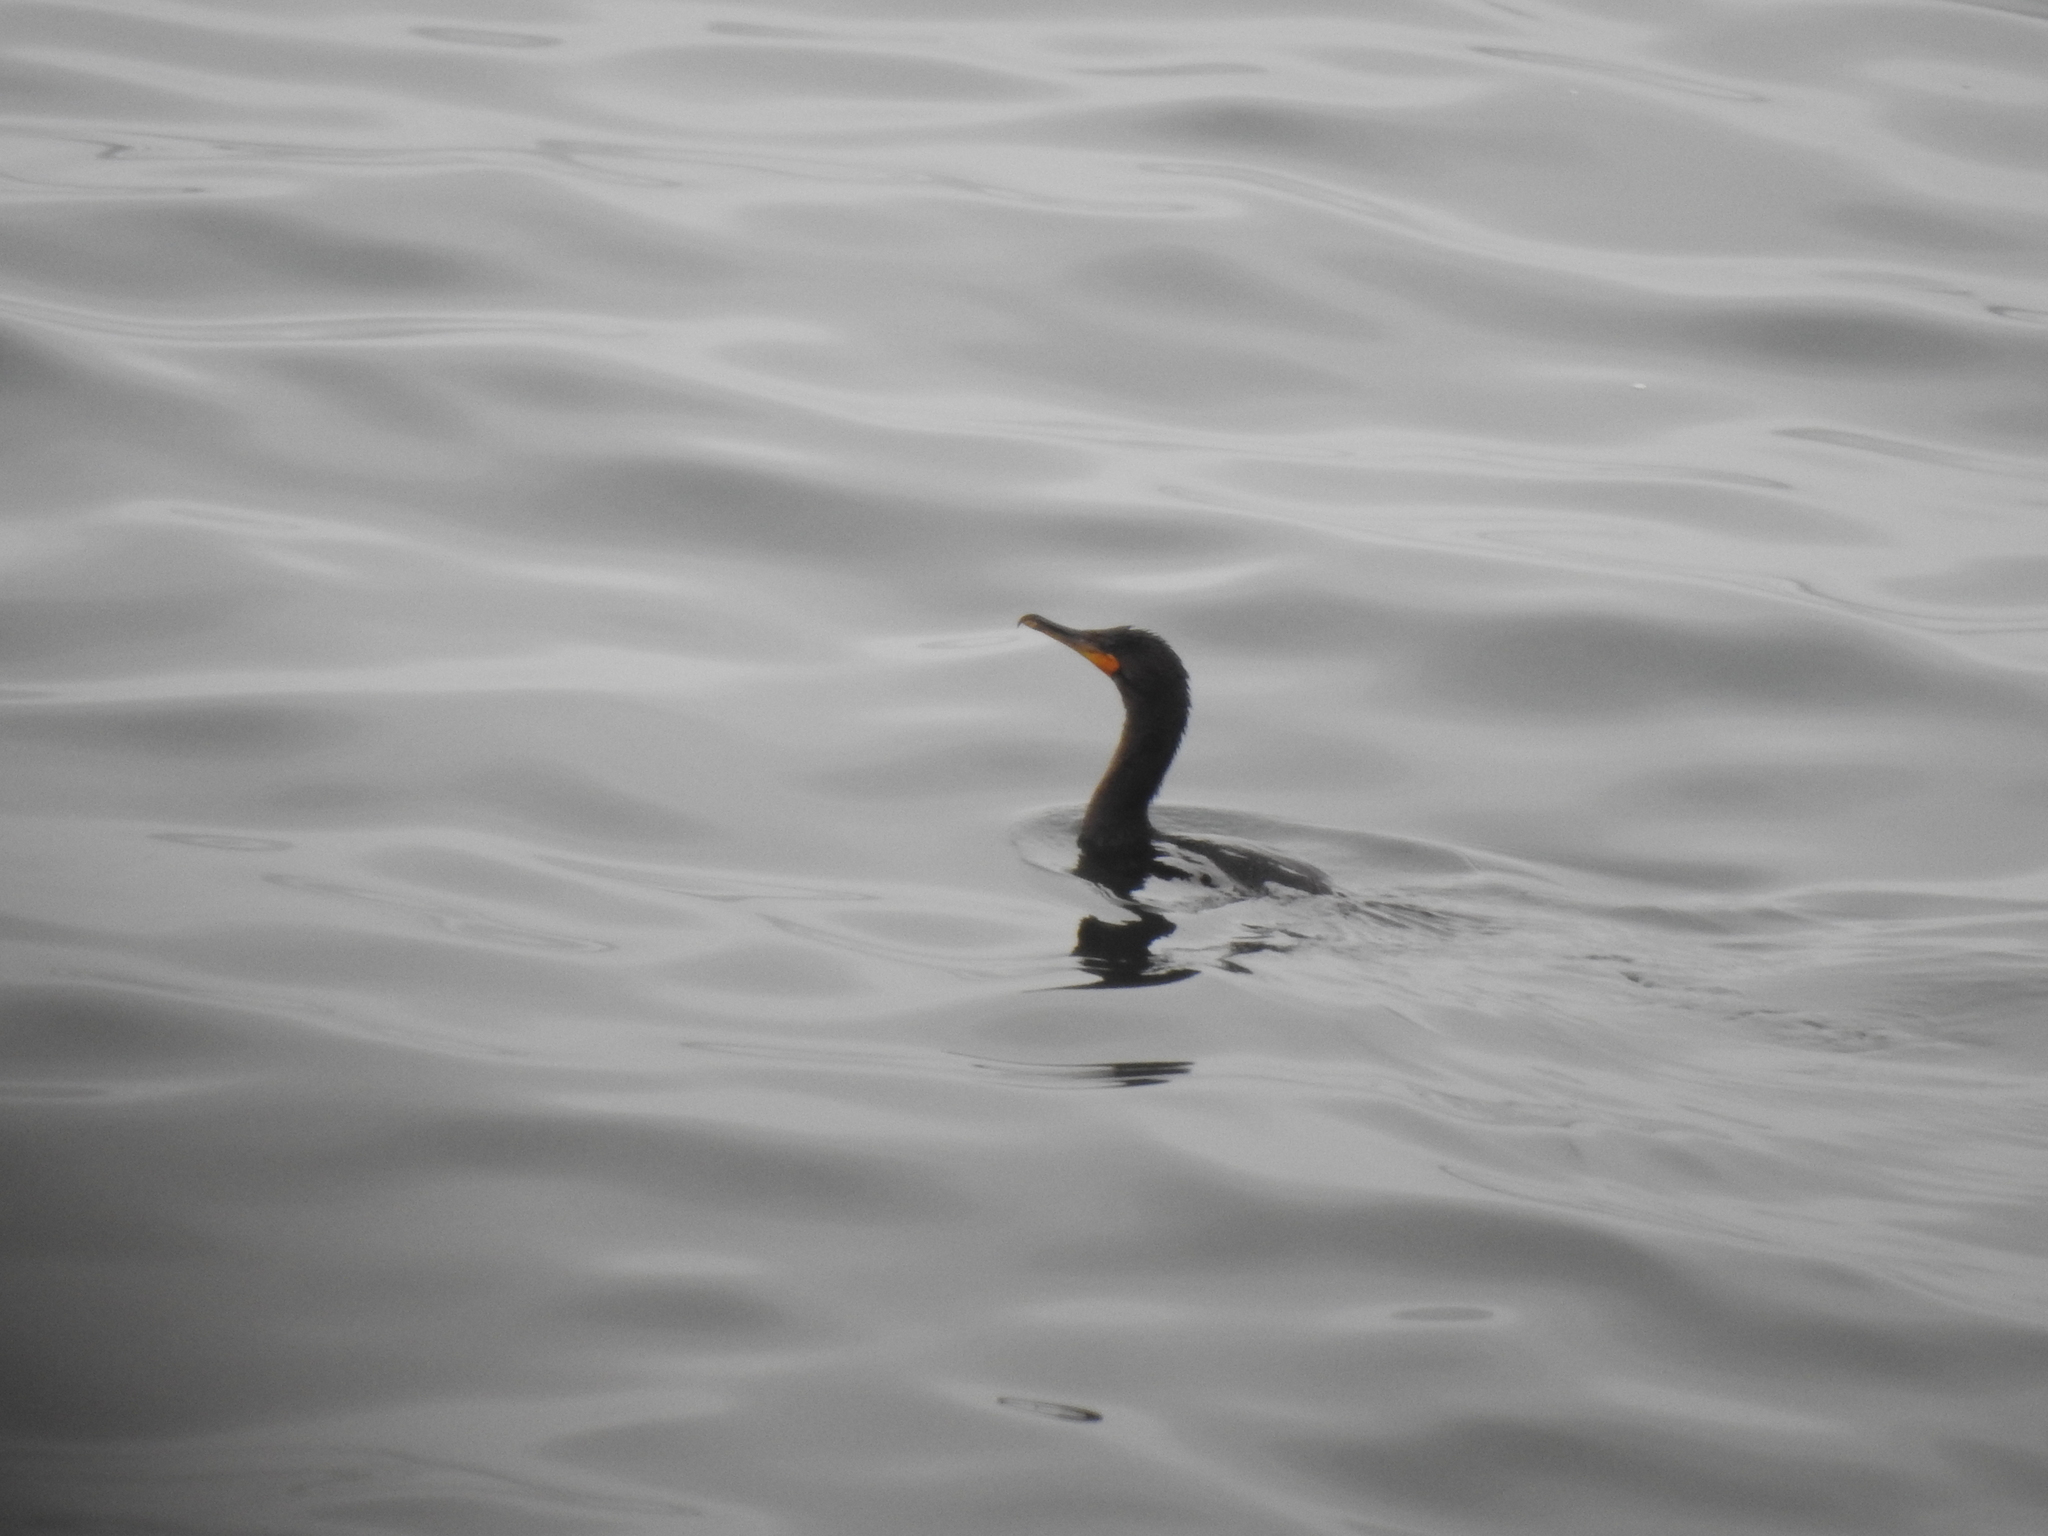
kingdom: Animalia
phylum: Chordata
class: Aves
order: Suliformes
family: Phalacrocoracidae
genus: Phalacrocorax
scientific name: Phalacrocorax auritus
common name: Double-crested cormorant
